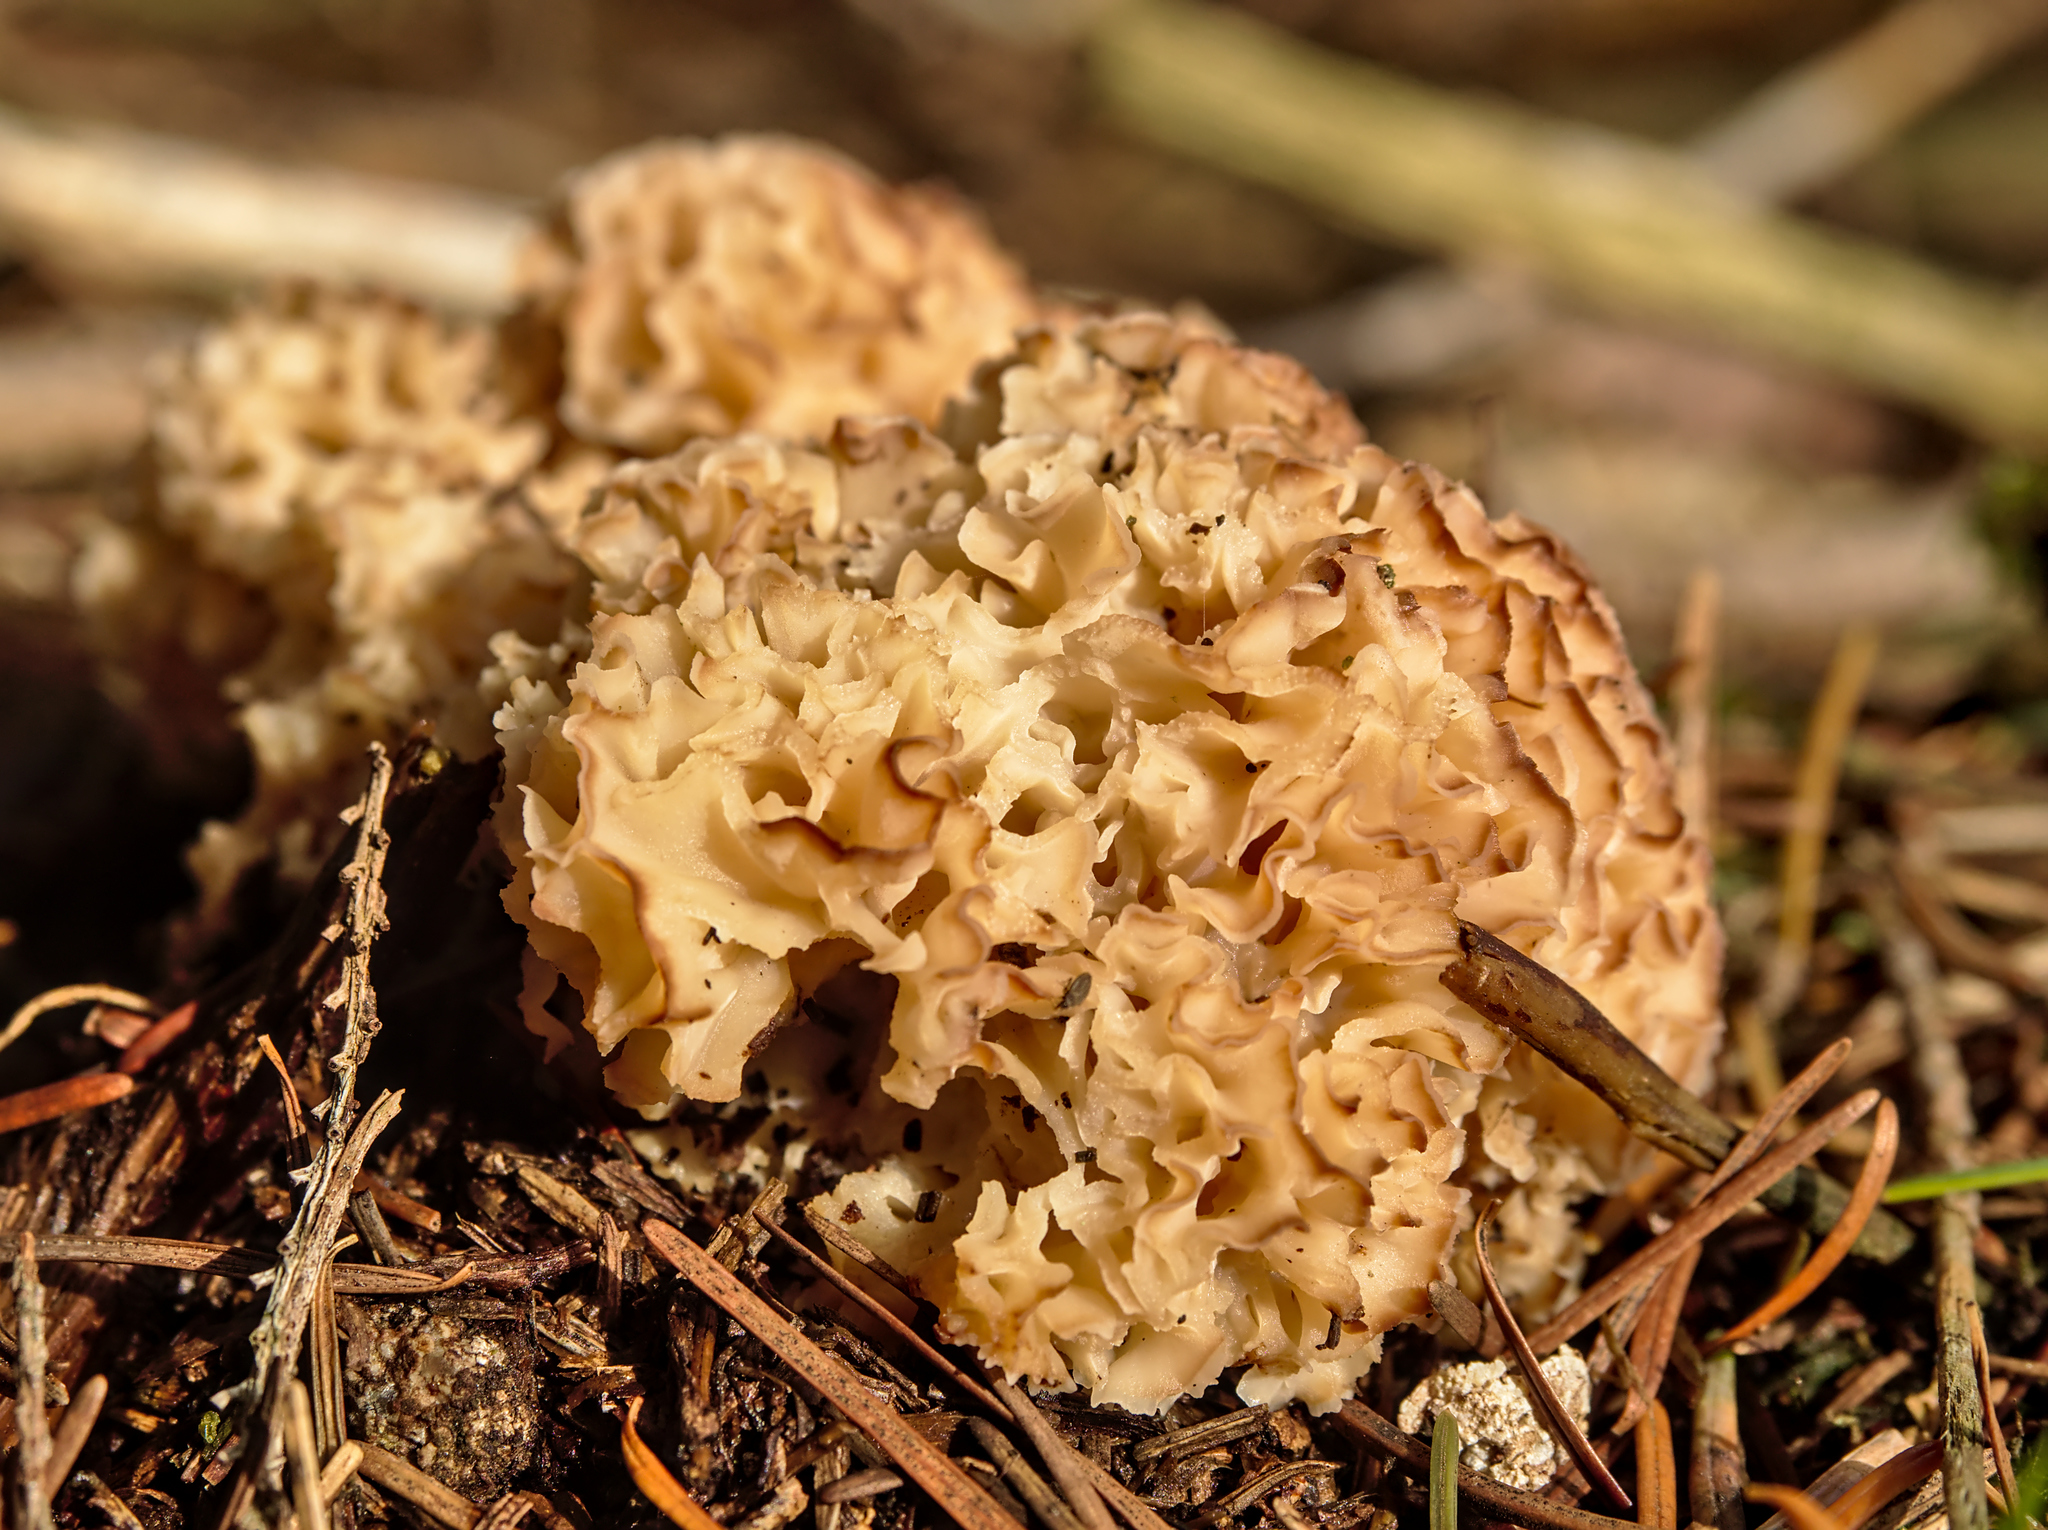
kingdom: Fungi
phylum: Basidiomycota
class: Agaricomycetes
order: Polyporales
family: Sparassidaceae
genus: Sparassis
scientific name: Sparassis crispa
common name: Brain fungus
